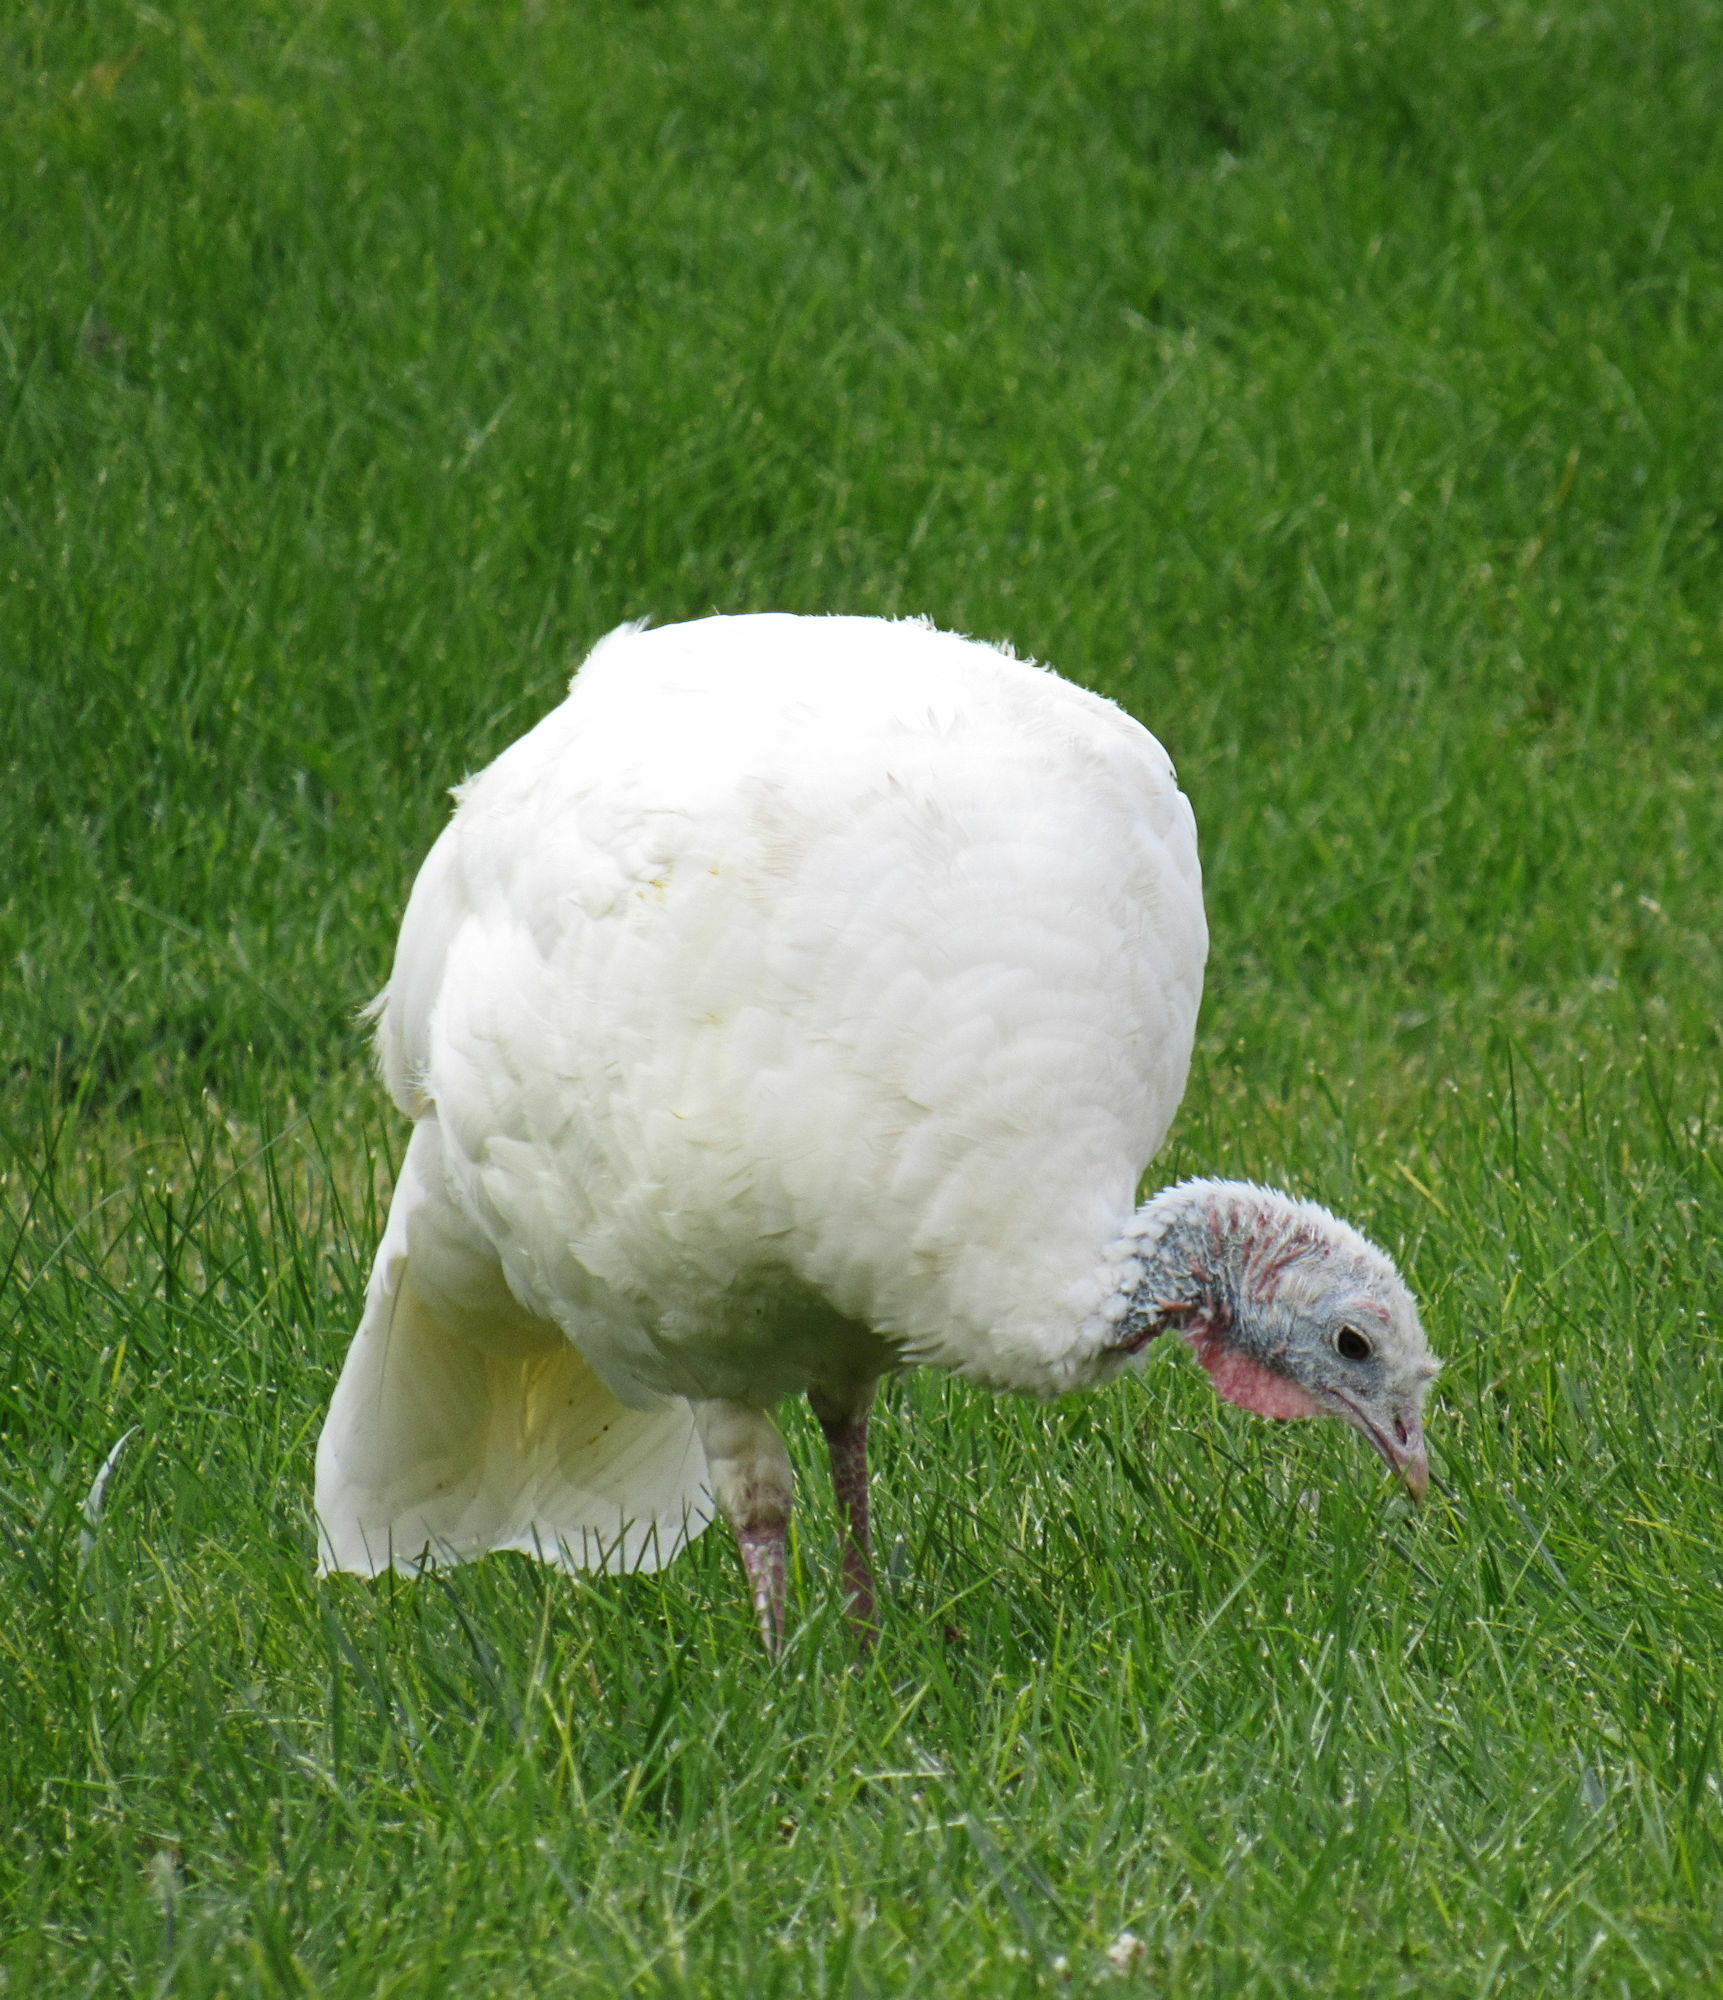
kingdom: Animalia
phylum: Chordata
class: Aves
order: Galliformes
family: Phasianidae
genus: Meleagris
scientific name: Meleagris gallopavo
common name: Wild turkey
